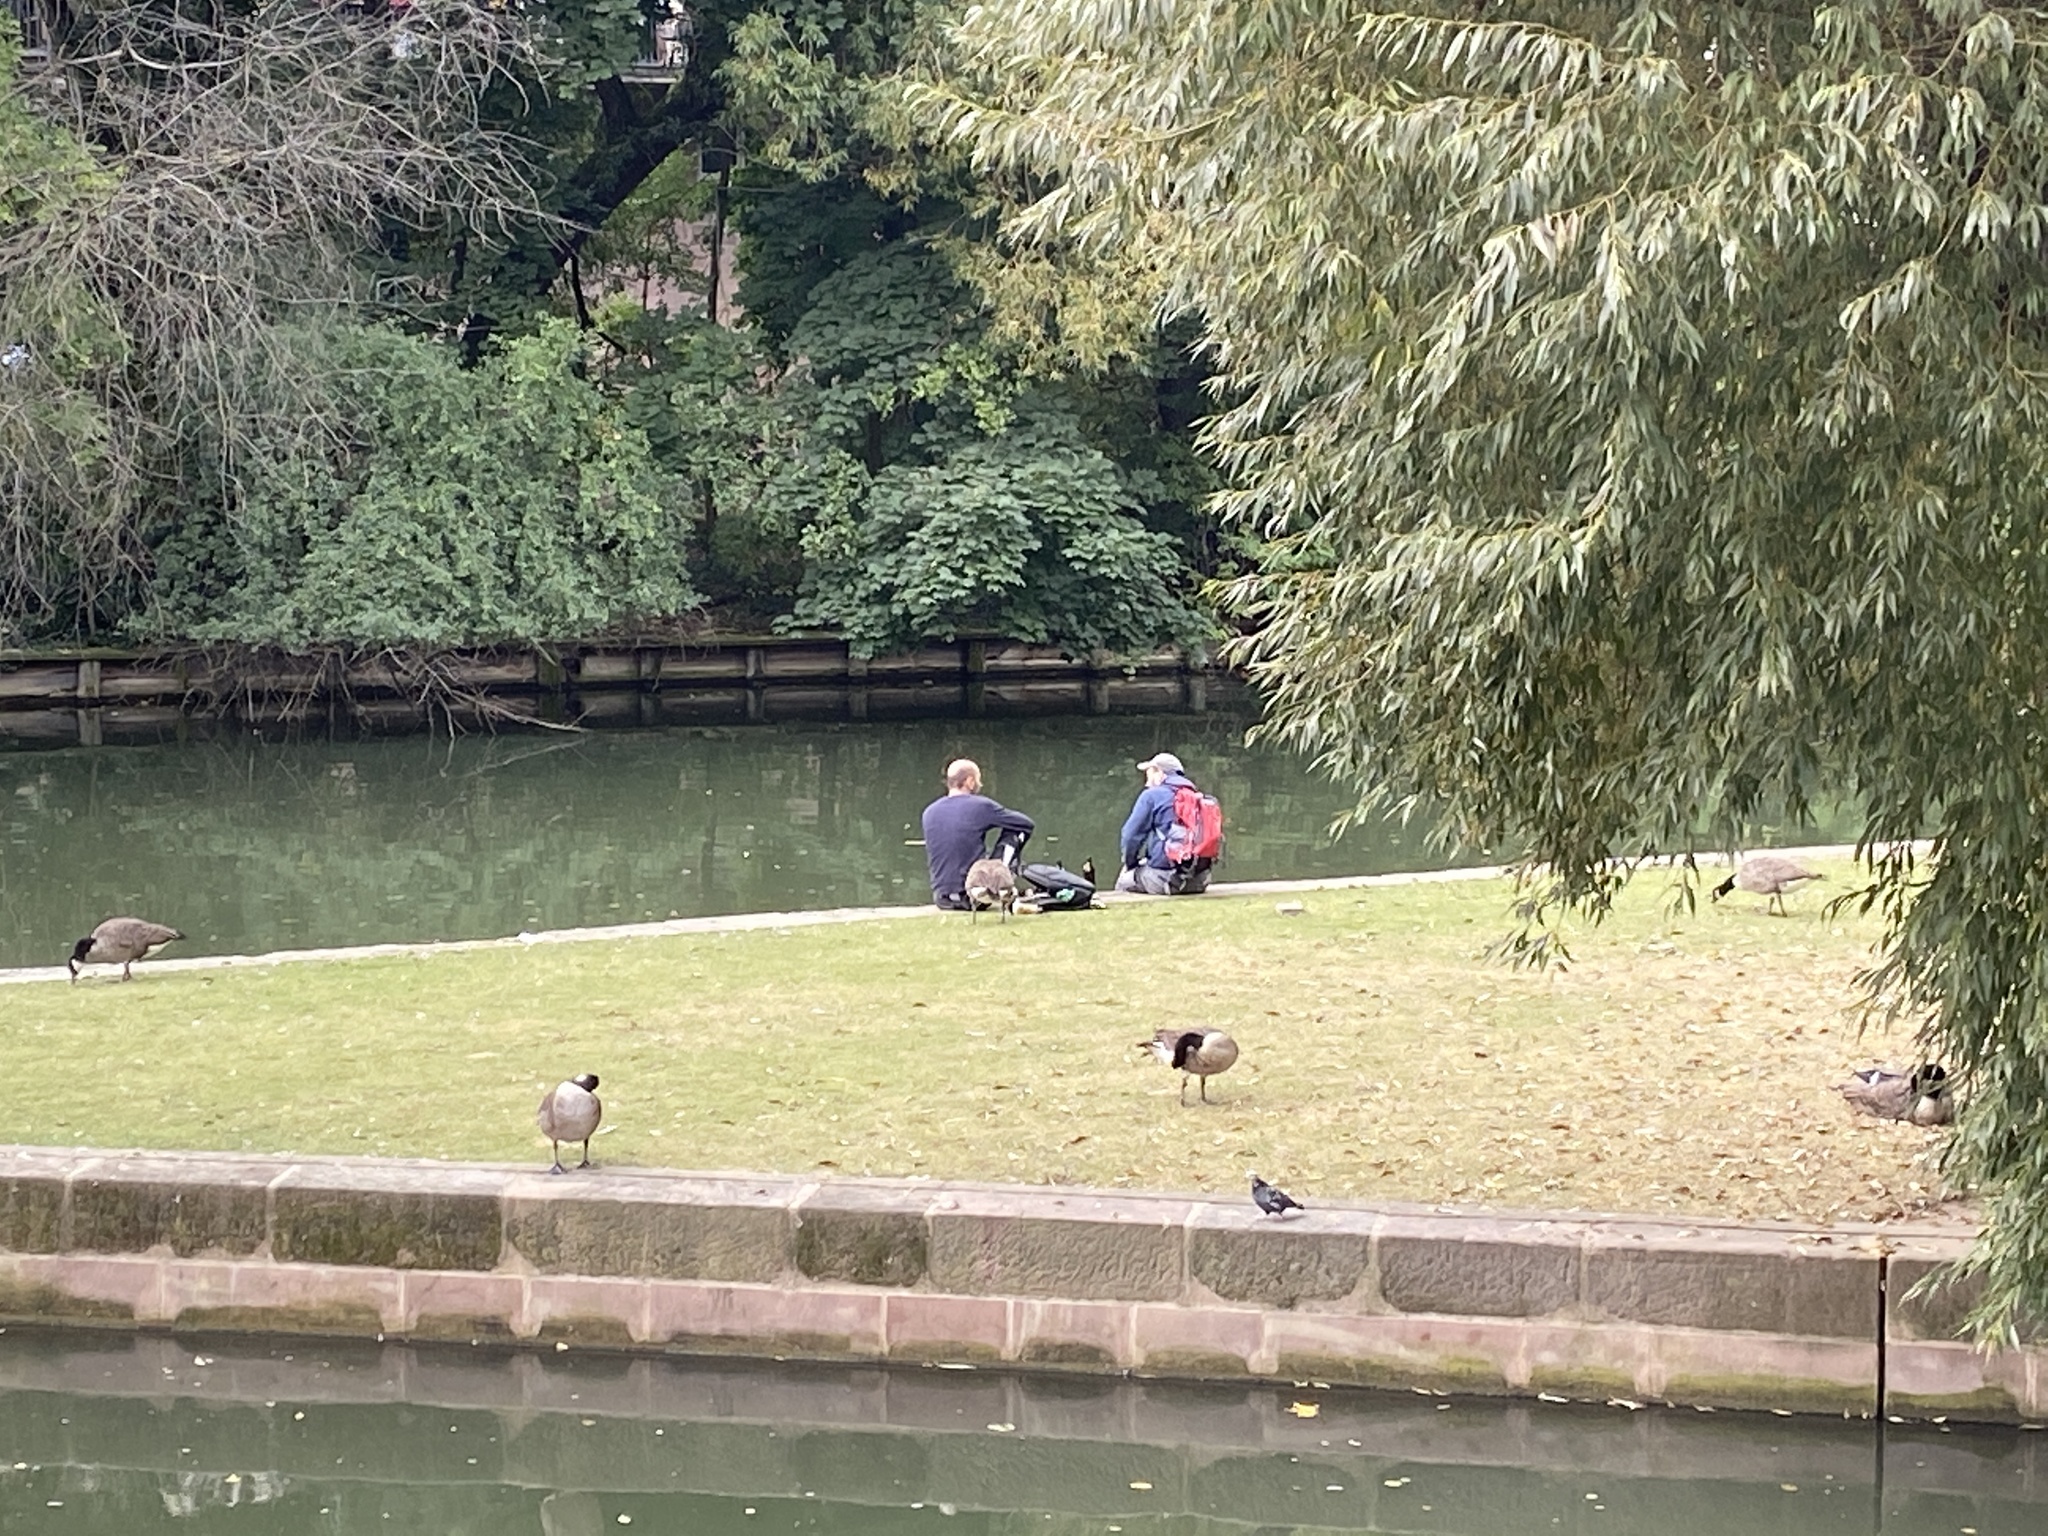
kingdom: Animalia
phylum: Chordata
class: Aves
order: Anseriformes
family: Anatidae
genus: Branta
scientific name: Branta canadensis
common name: Canada goose
